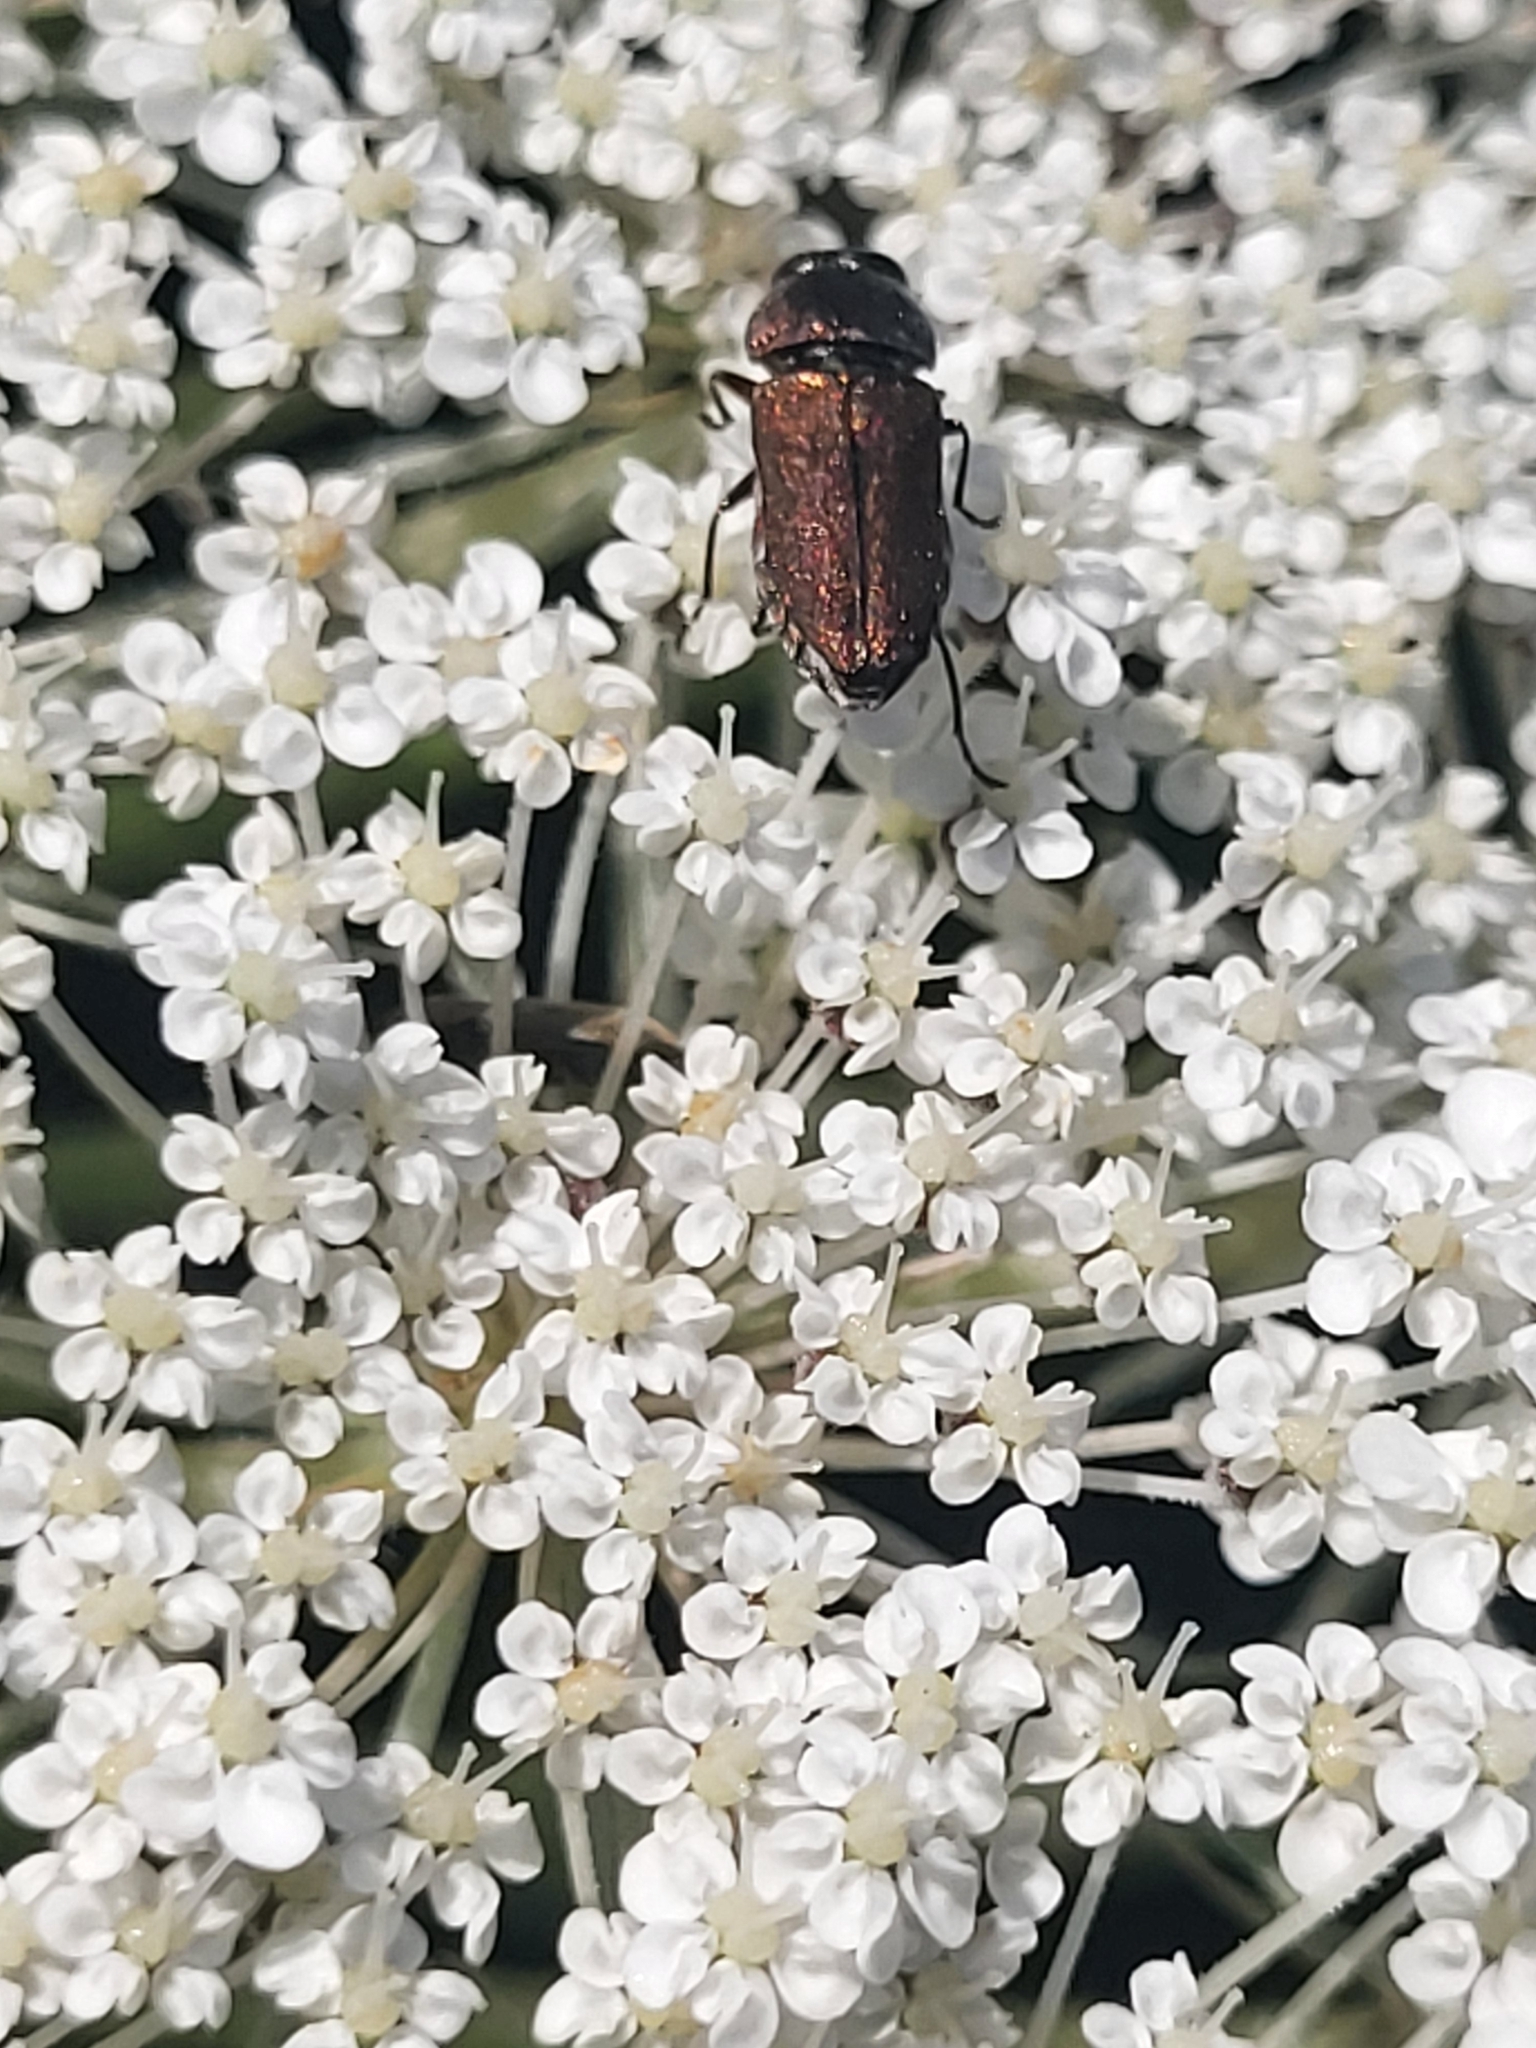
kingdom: Animalia
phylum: Arthropoda
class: Insecta
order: Coleoptera
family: Buprestidae
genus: Anthaxia
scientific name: Anthaxia umbellatarum
